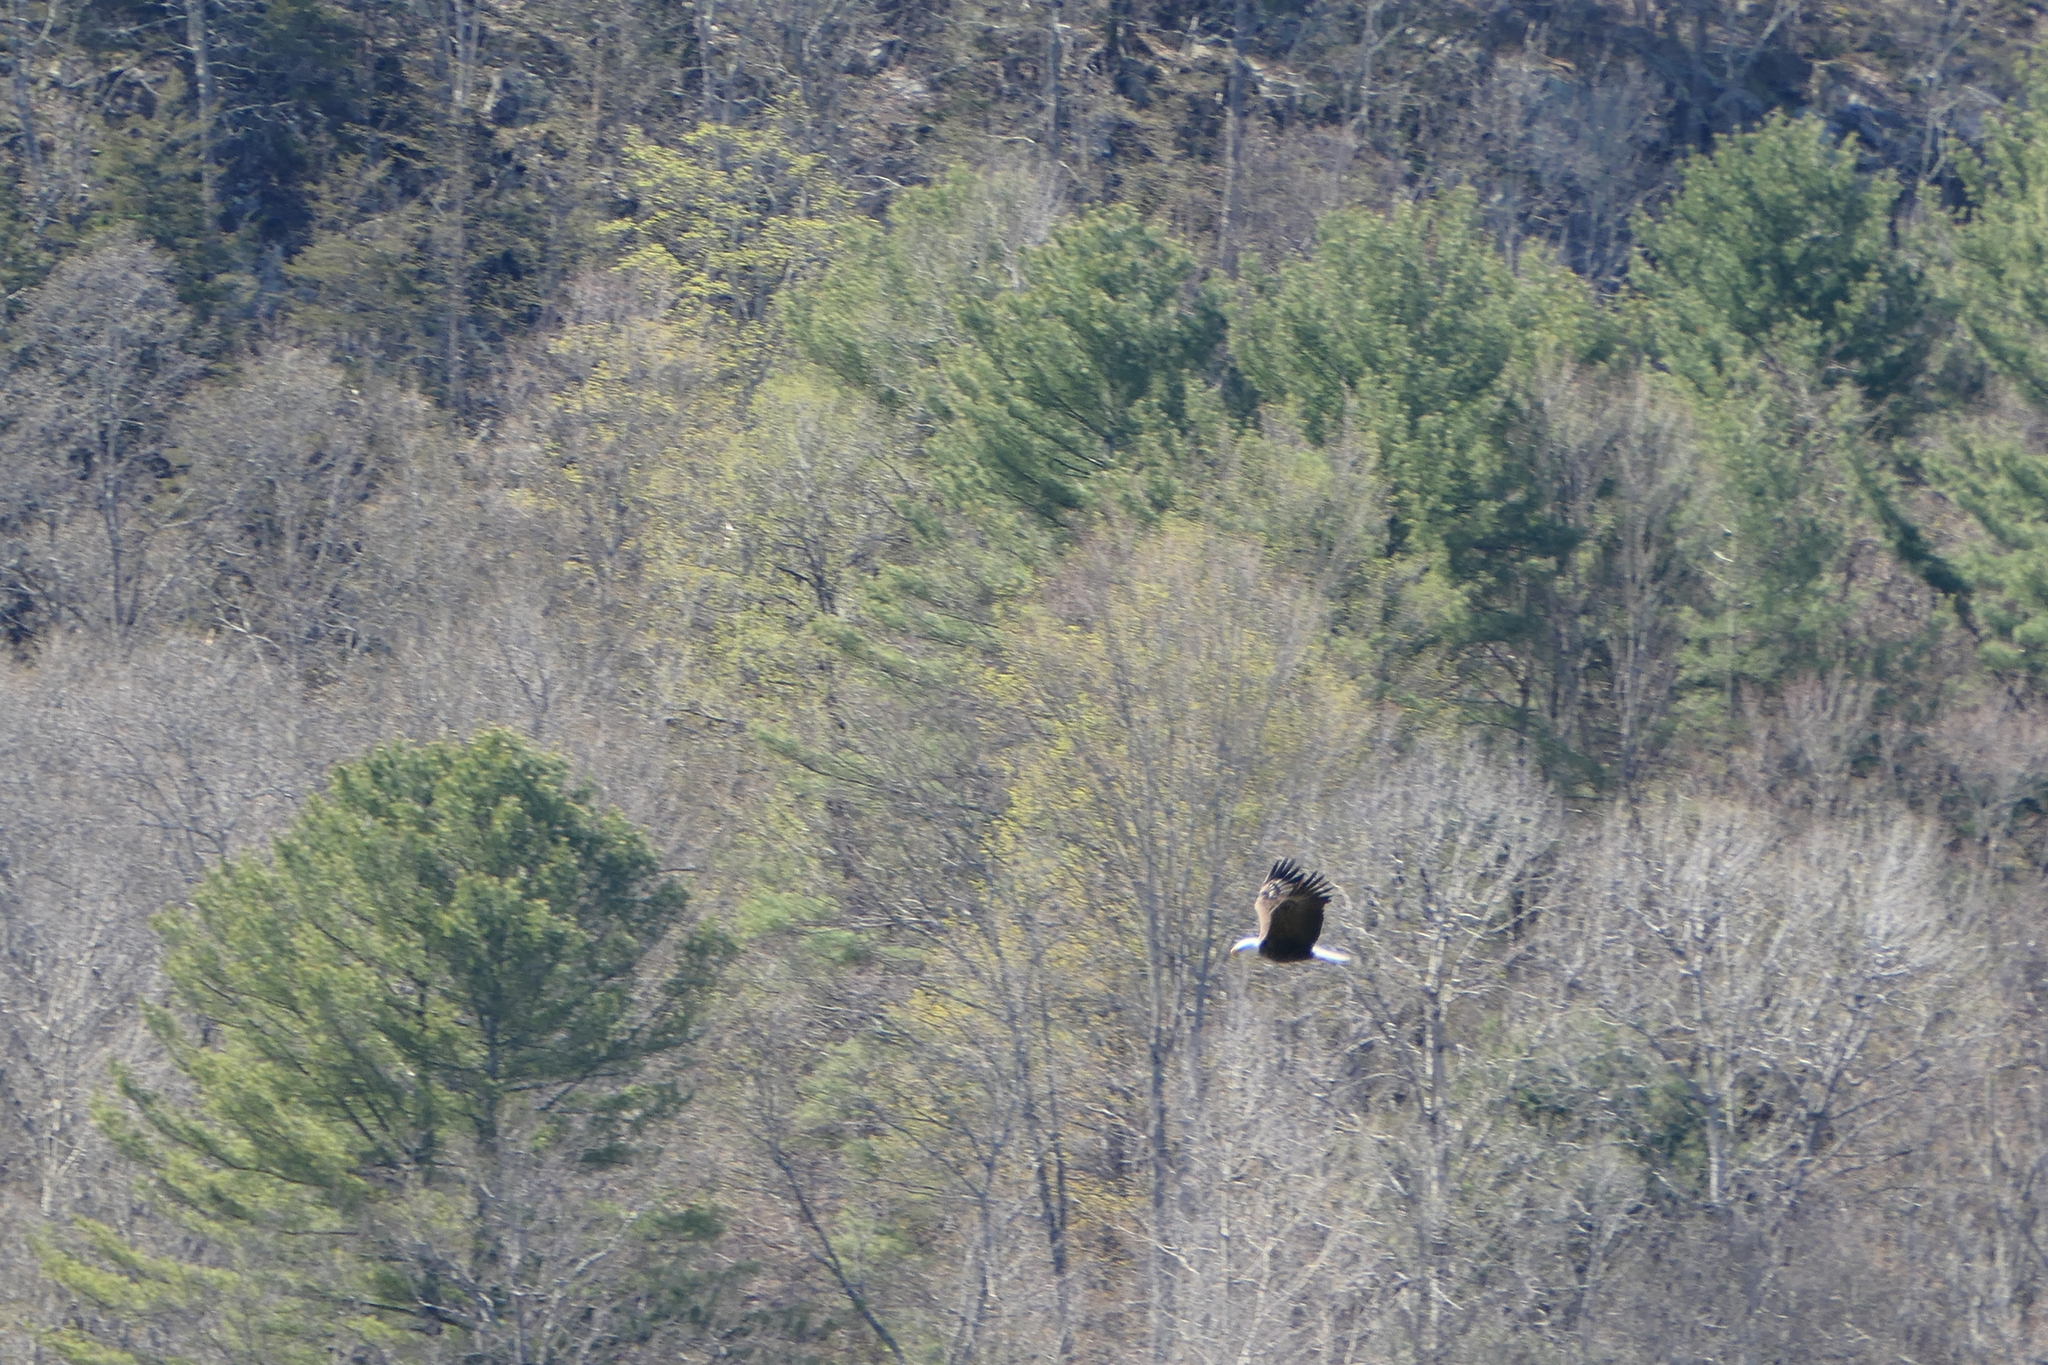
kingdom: Animalia
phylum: Chordata
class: Aves
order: Accipitriformes
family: Accipitridae
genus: Haliaeetus
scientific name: Haliaeetus leucocephalus
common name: Bald eagle
